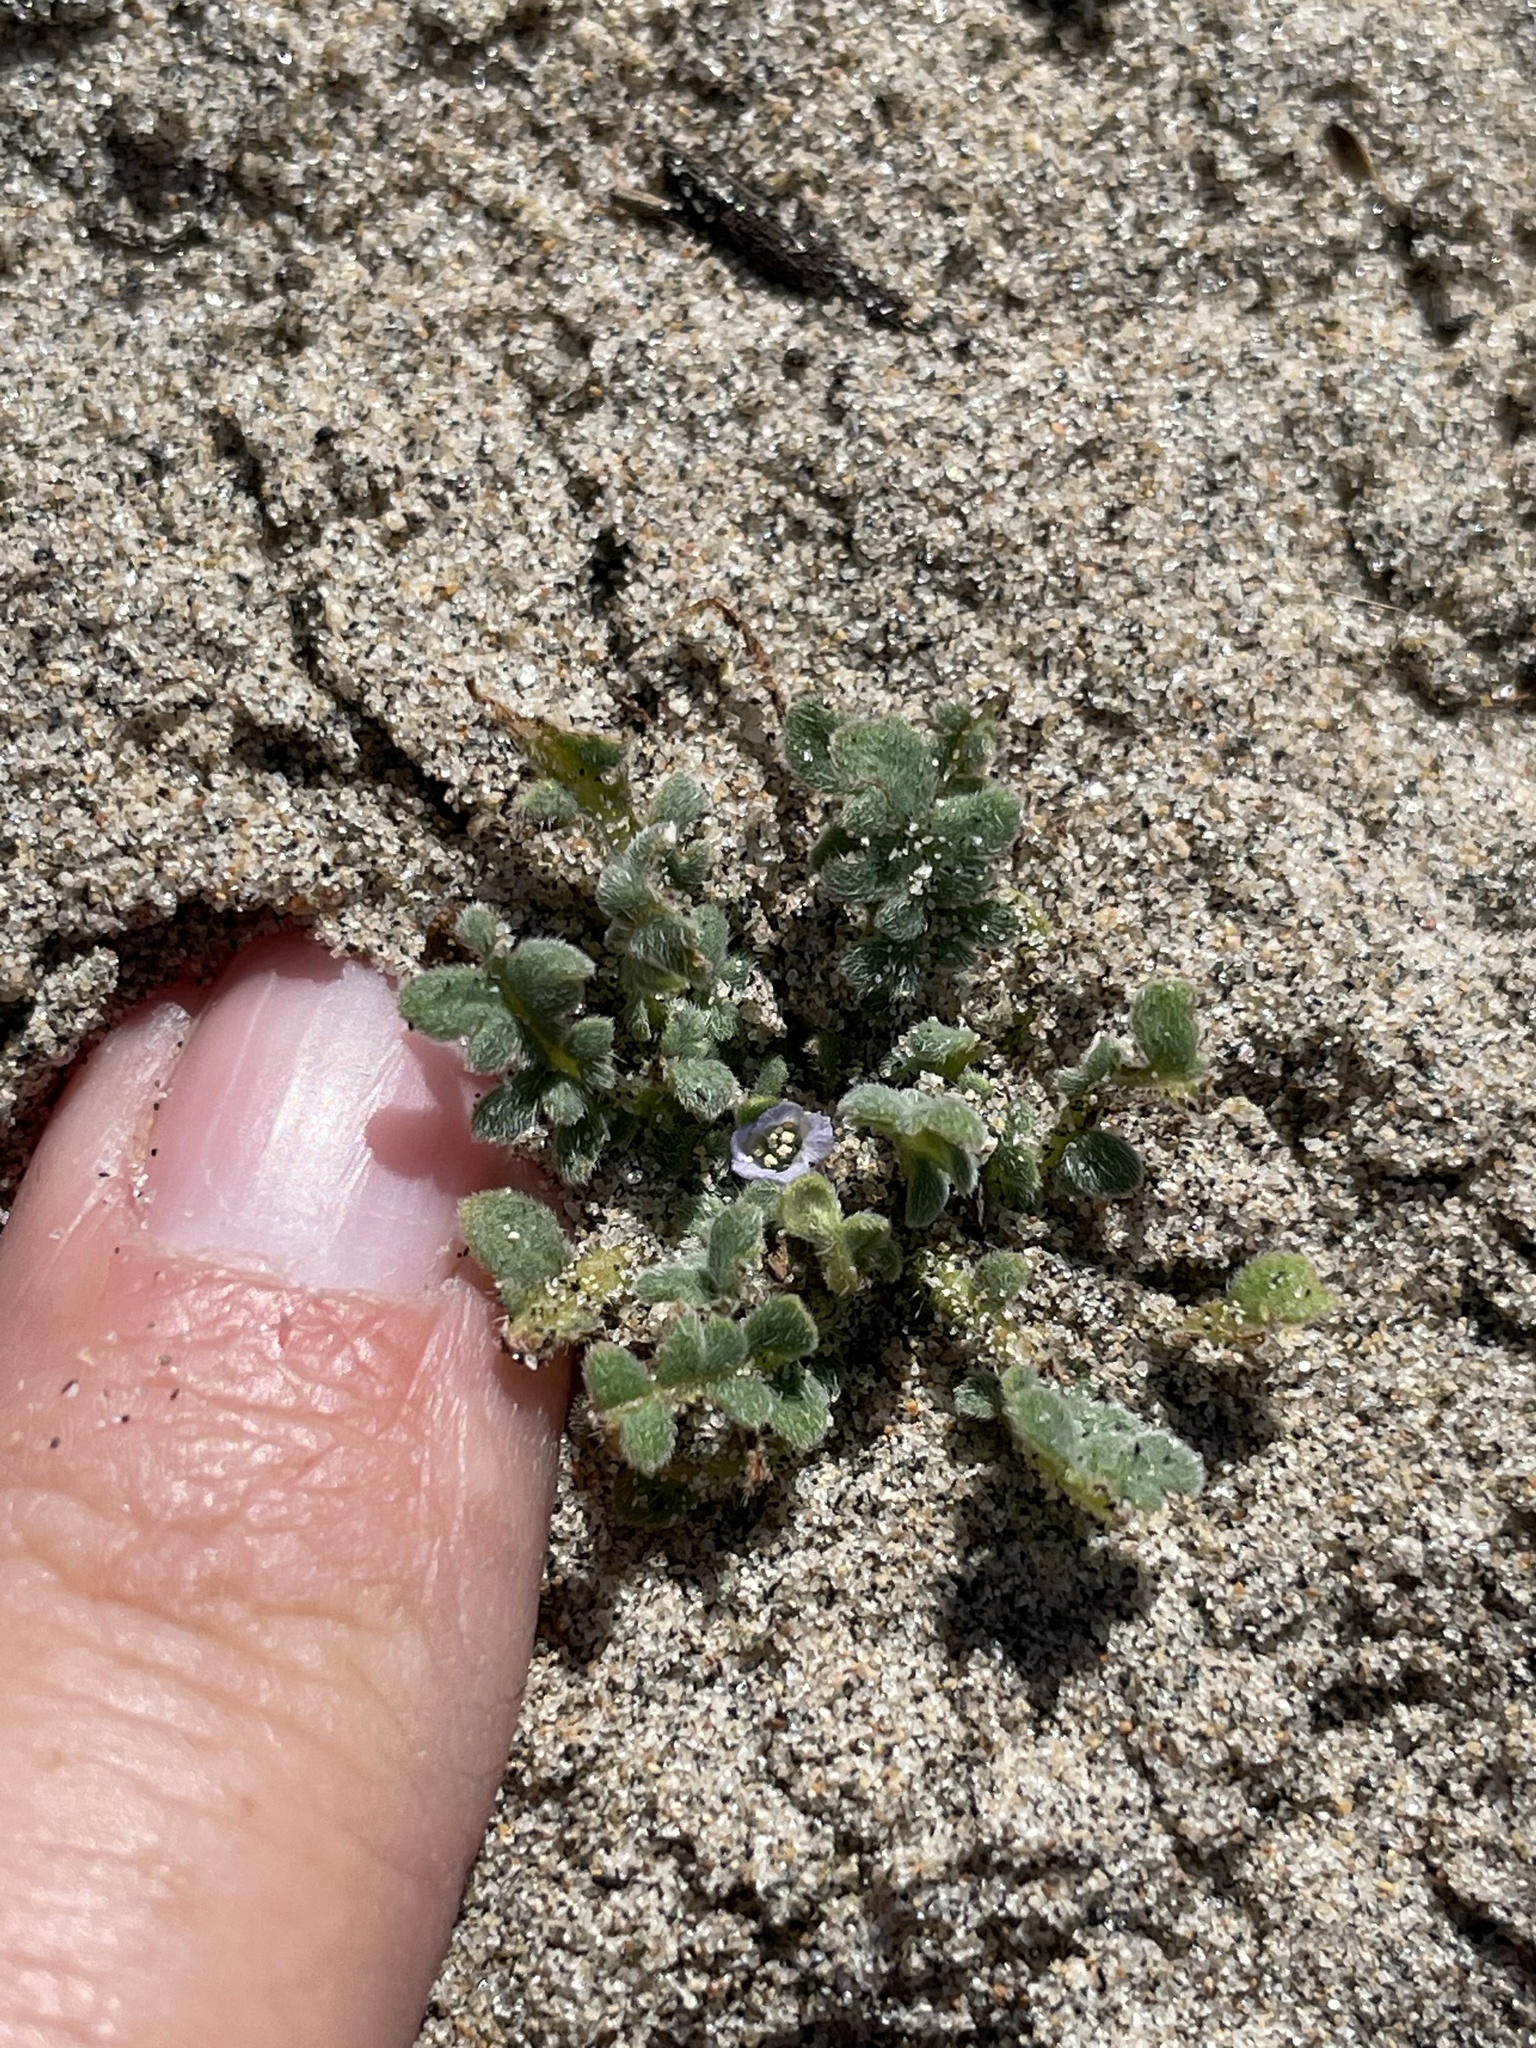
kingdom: Plantae
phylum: Tracheophyta
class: Magnoliopsida
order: Boraginales
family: Hydrophyllaceae
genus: Phacelia
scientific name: Phacelia stellaris
